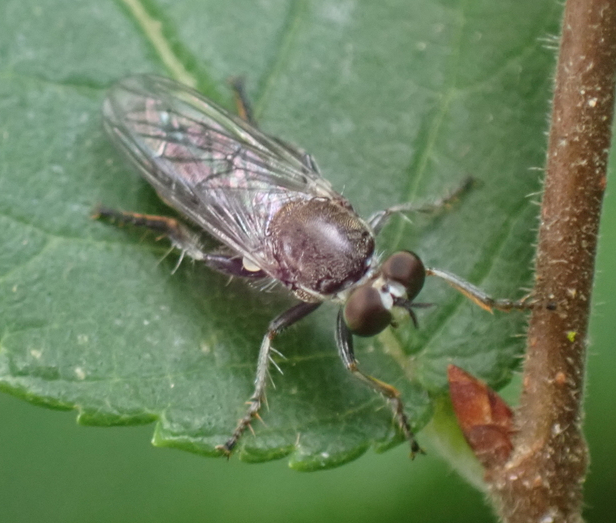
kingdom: Animalia
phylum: Arthropoda
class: Insecta
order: Diptera
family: Asilidae
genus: Atomosia
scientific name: Atomosia puella
